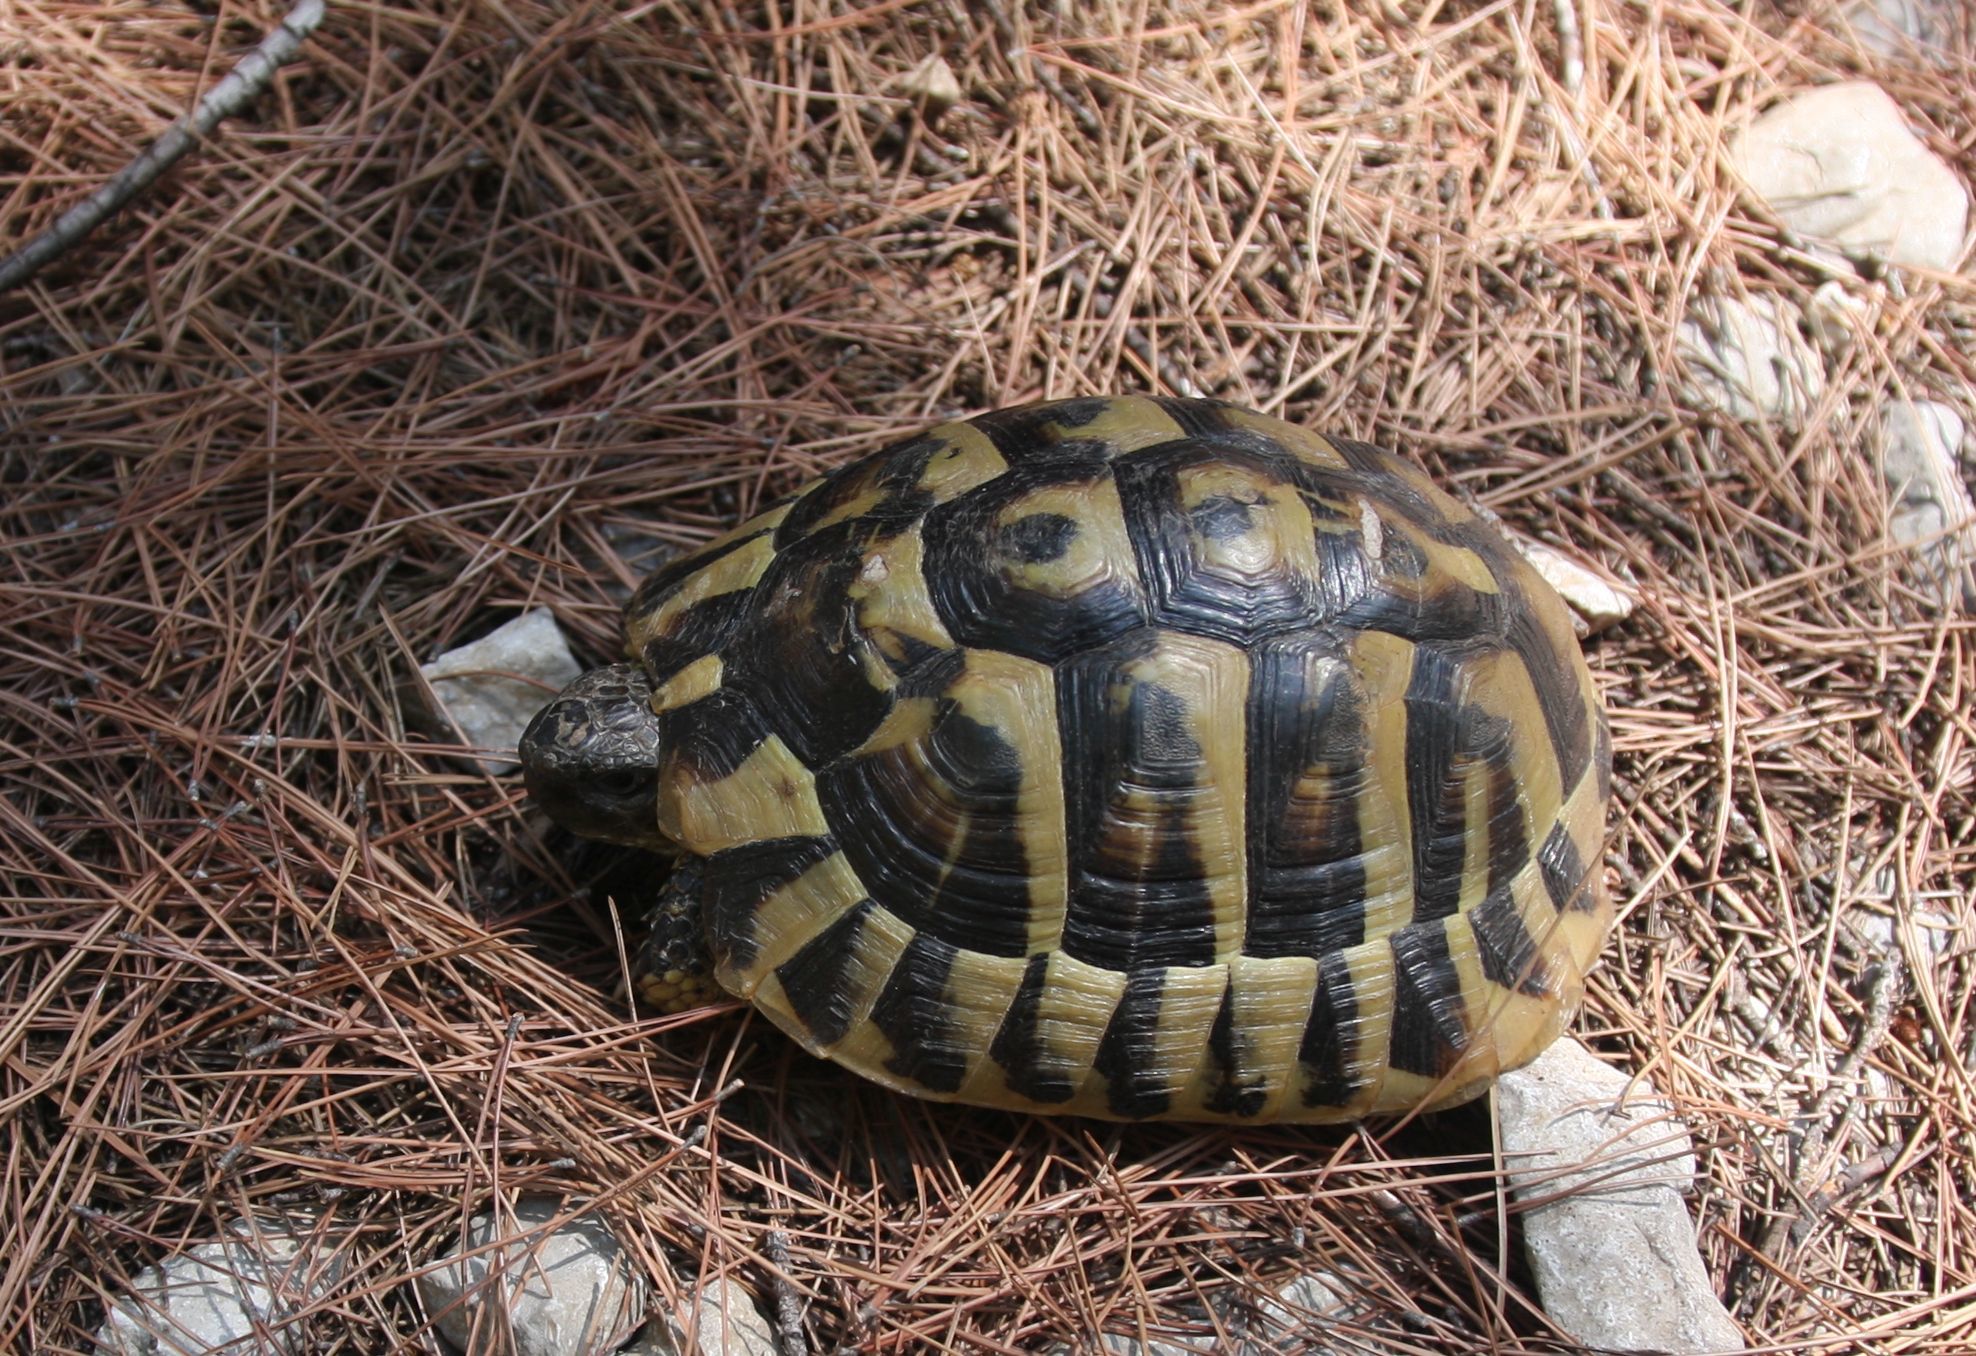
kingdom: Animalia
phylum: Chordata
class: Testudines
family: Testudinidae
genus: Testudo
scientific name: Testudo hermanni
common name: Hermann's tortoise
